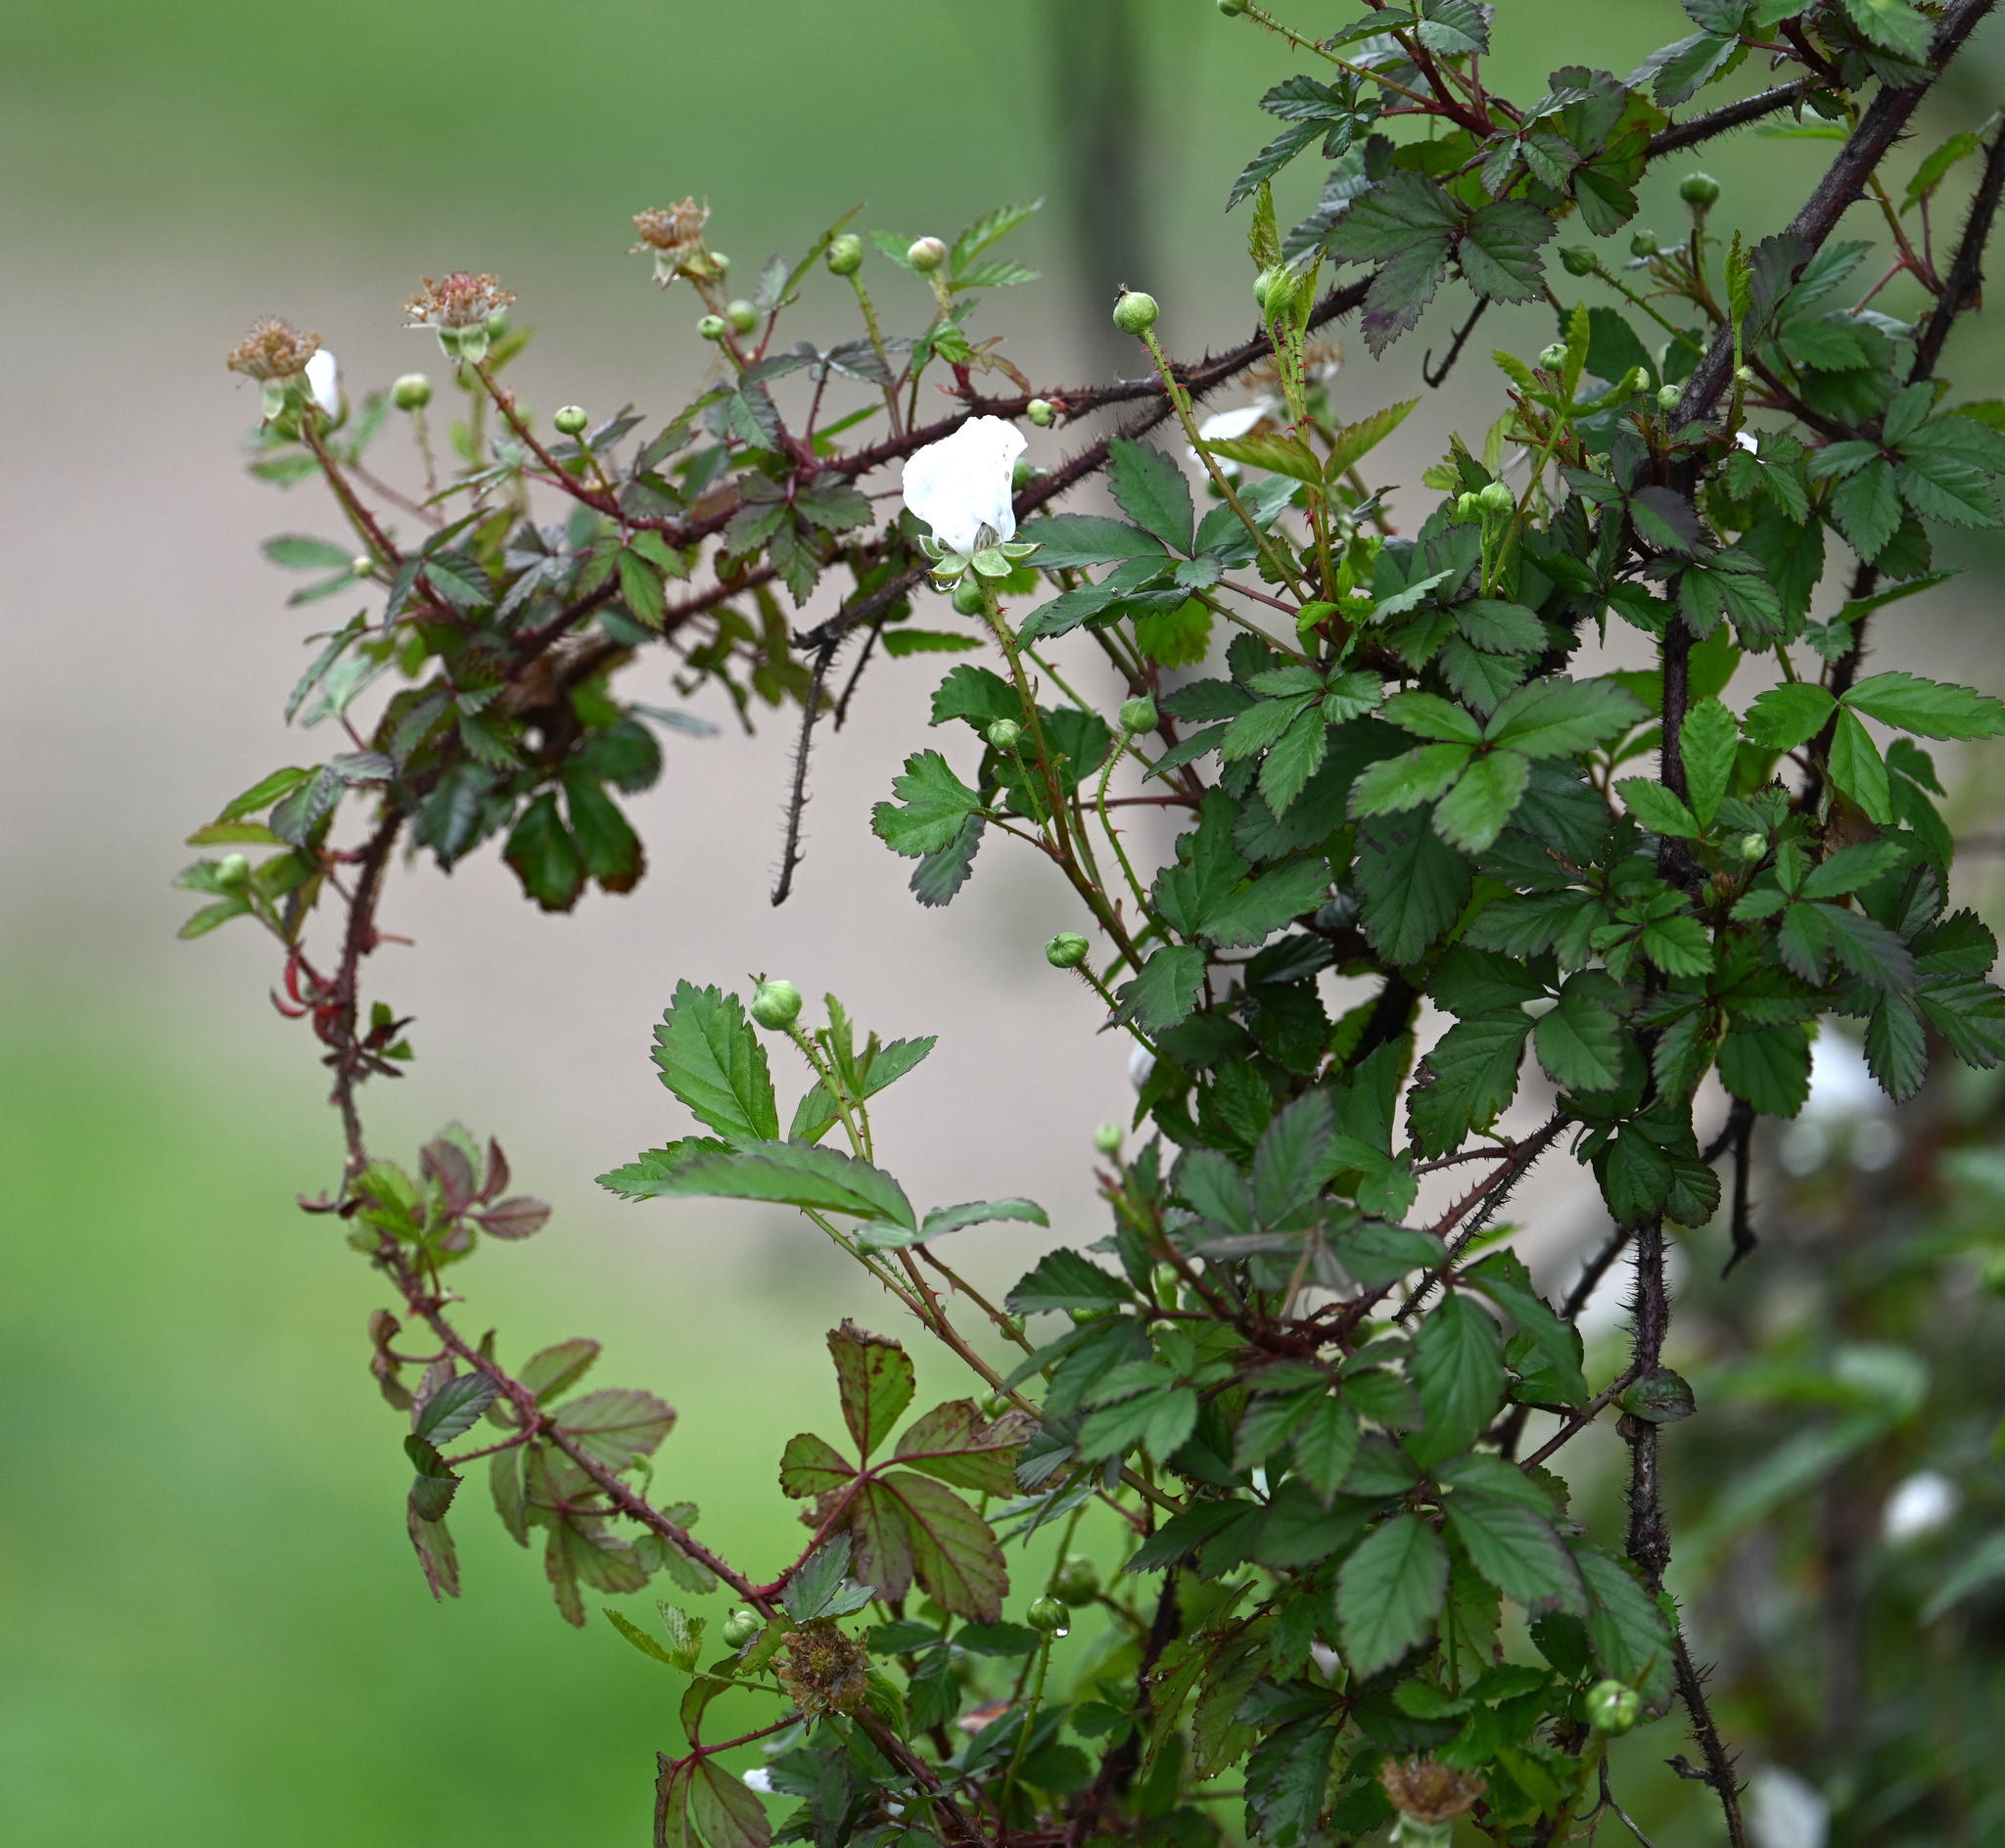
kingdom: Plantae
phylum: Tracheophyta
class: Magnoliopsida
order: Rosales
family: Rosaceae
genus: Rubus
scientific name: Rubus trivialis
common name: Southern dewberry
